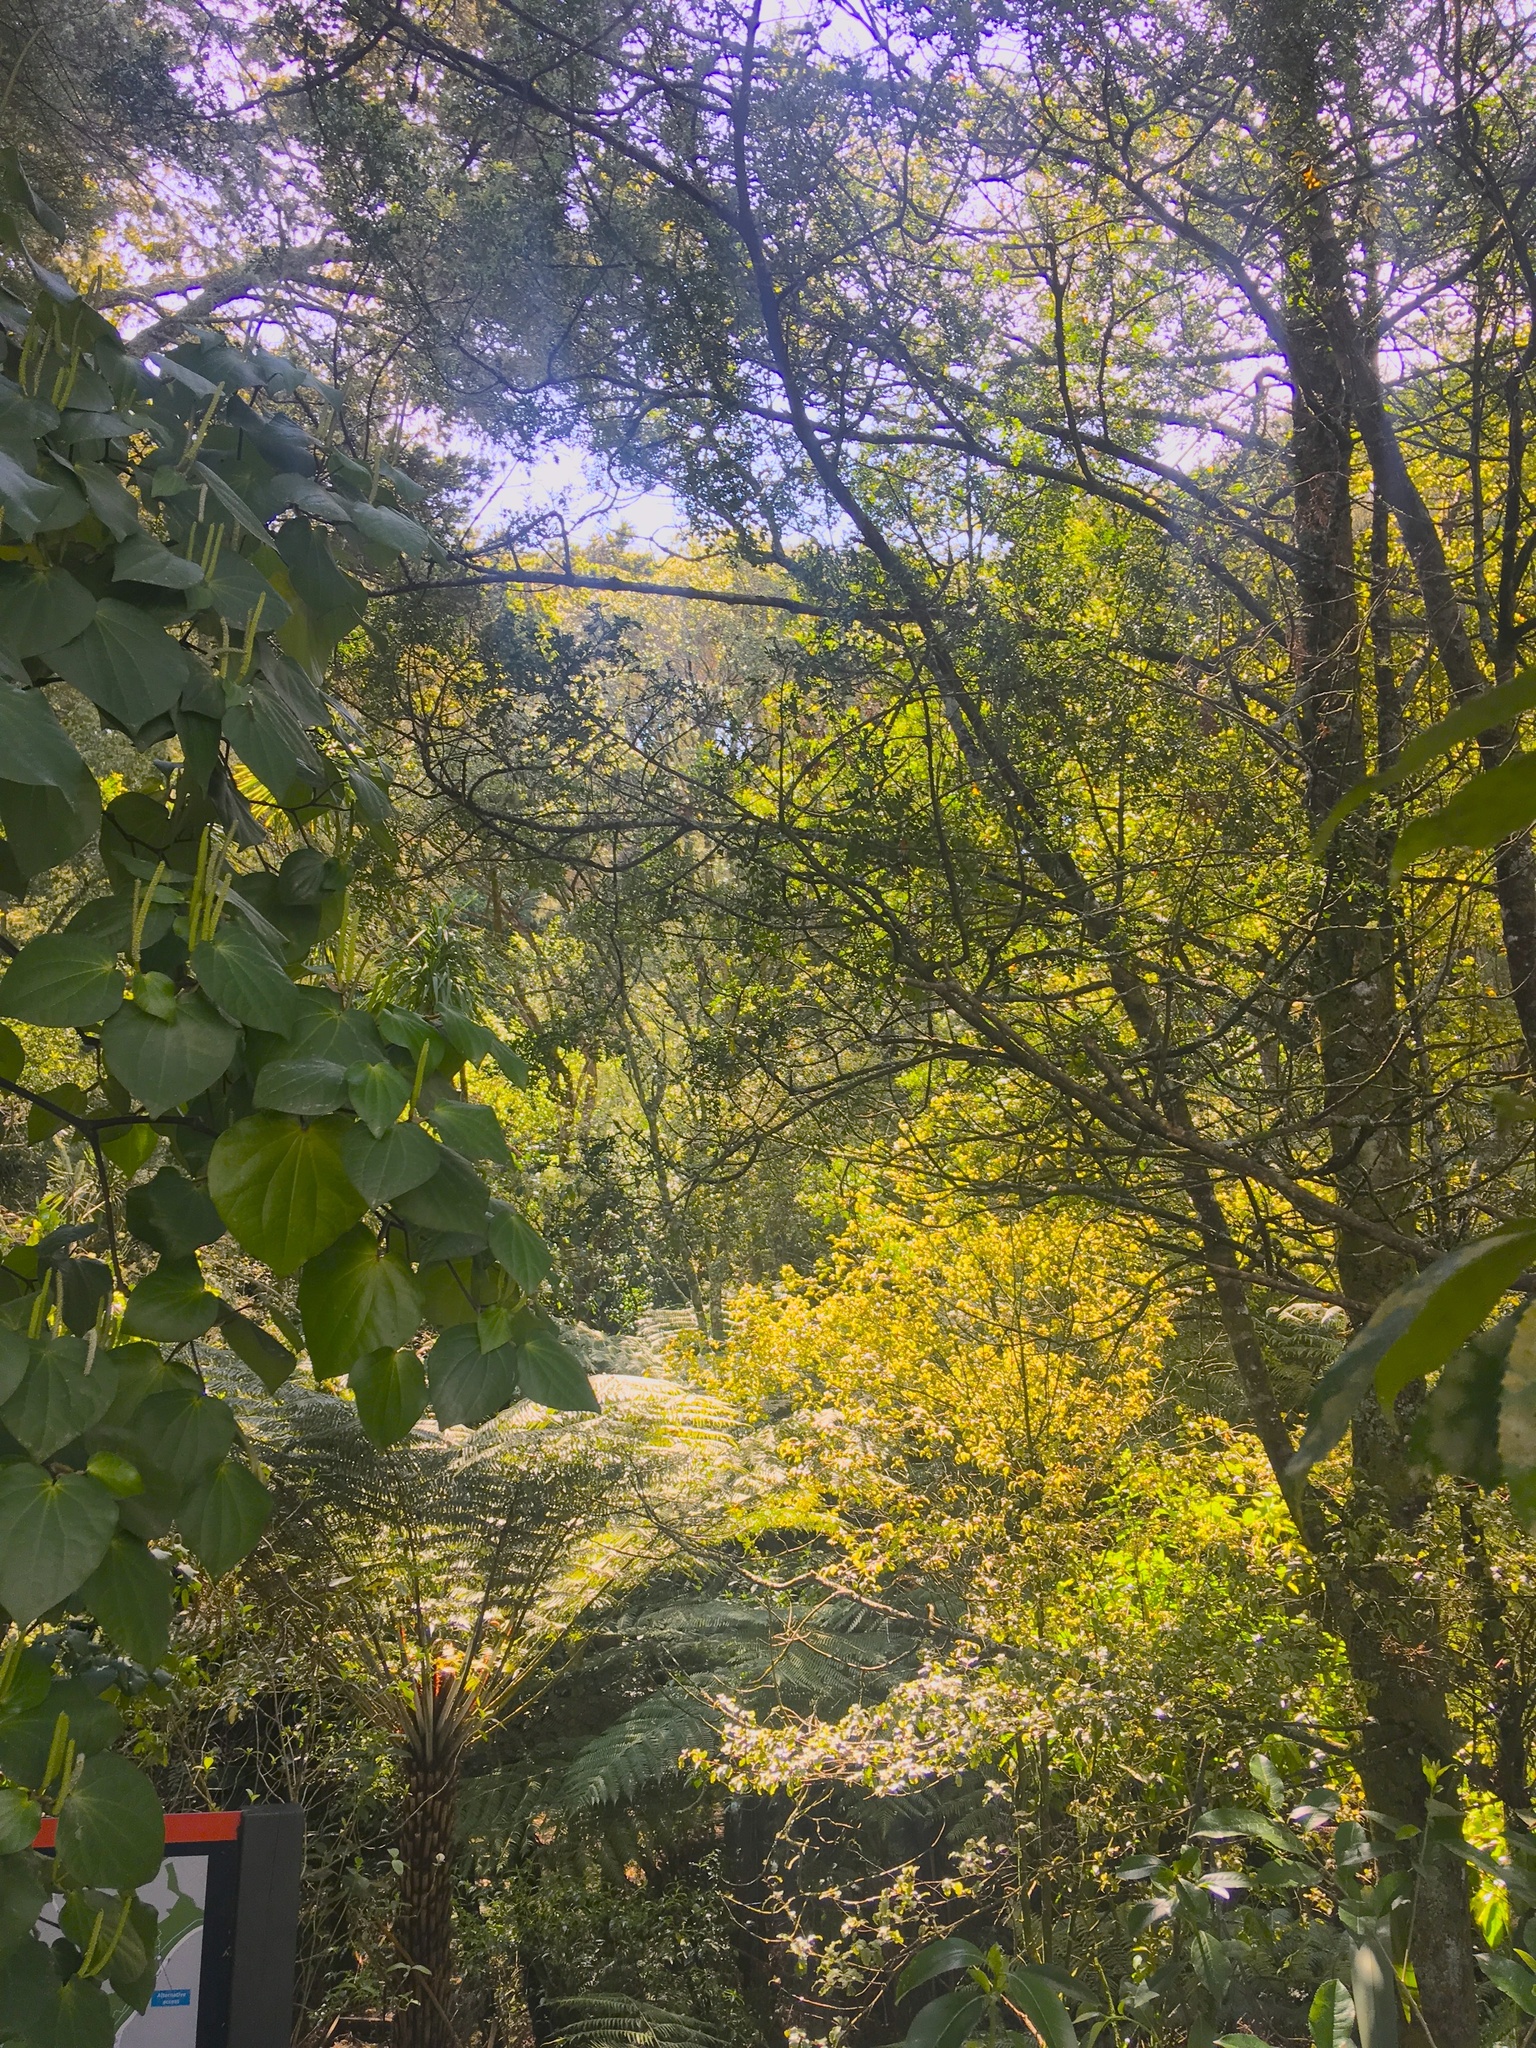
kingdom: Plantae
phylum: Tracheophyta
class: Magnoliopsida
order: Piperales
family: Piperaceae
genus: Macropiper
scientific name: Macropiper excelsum
